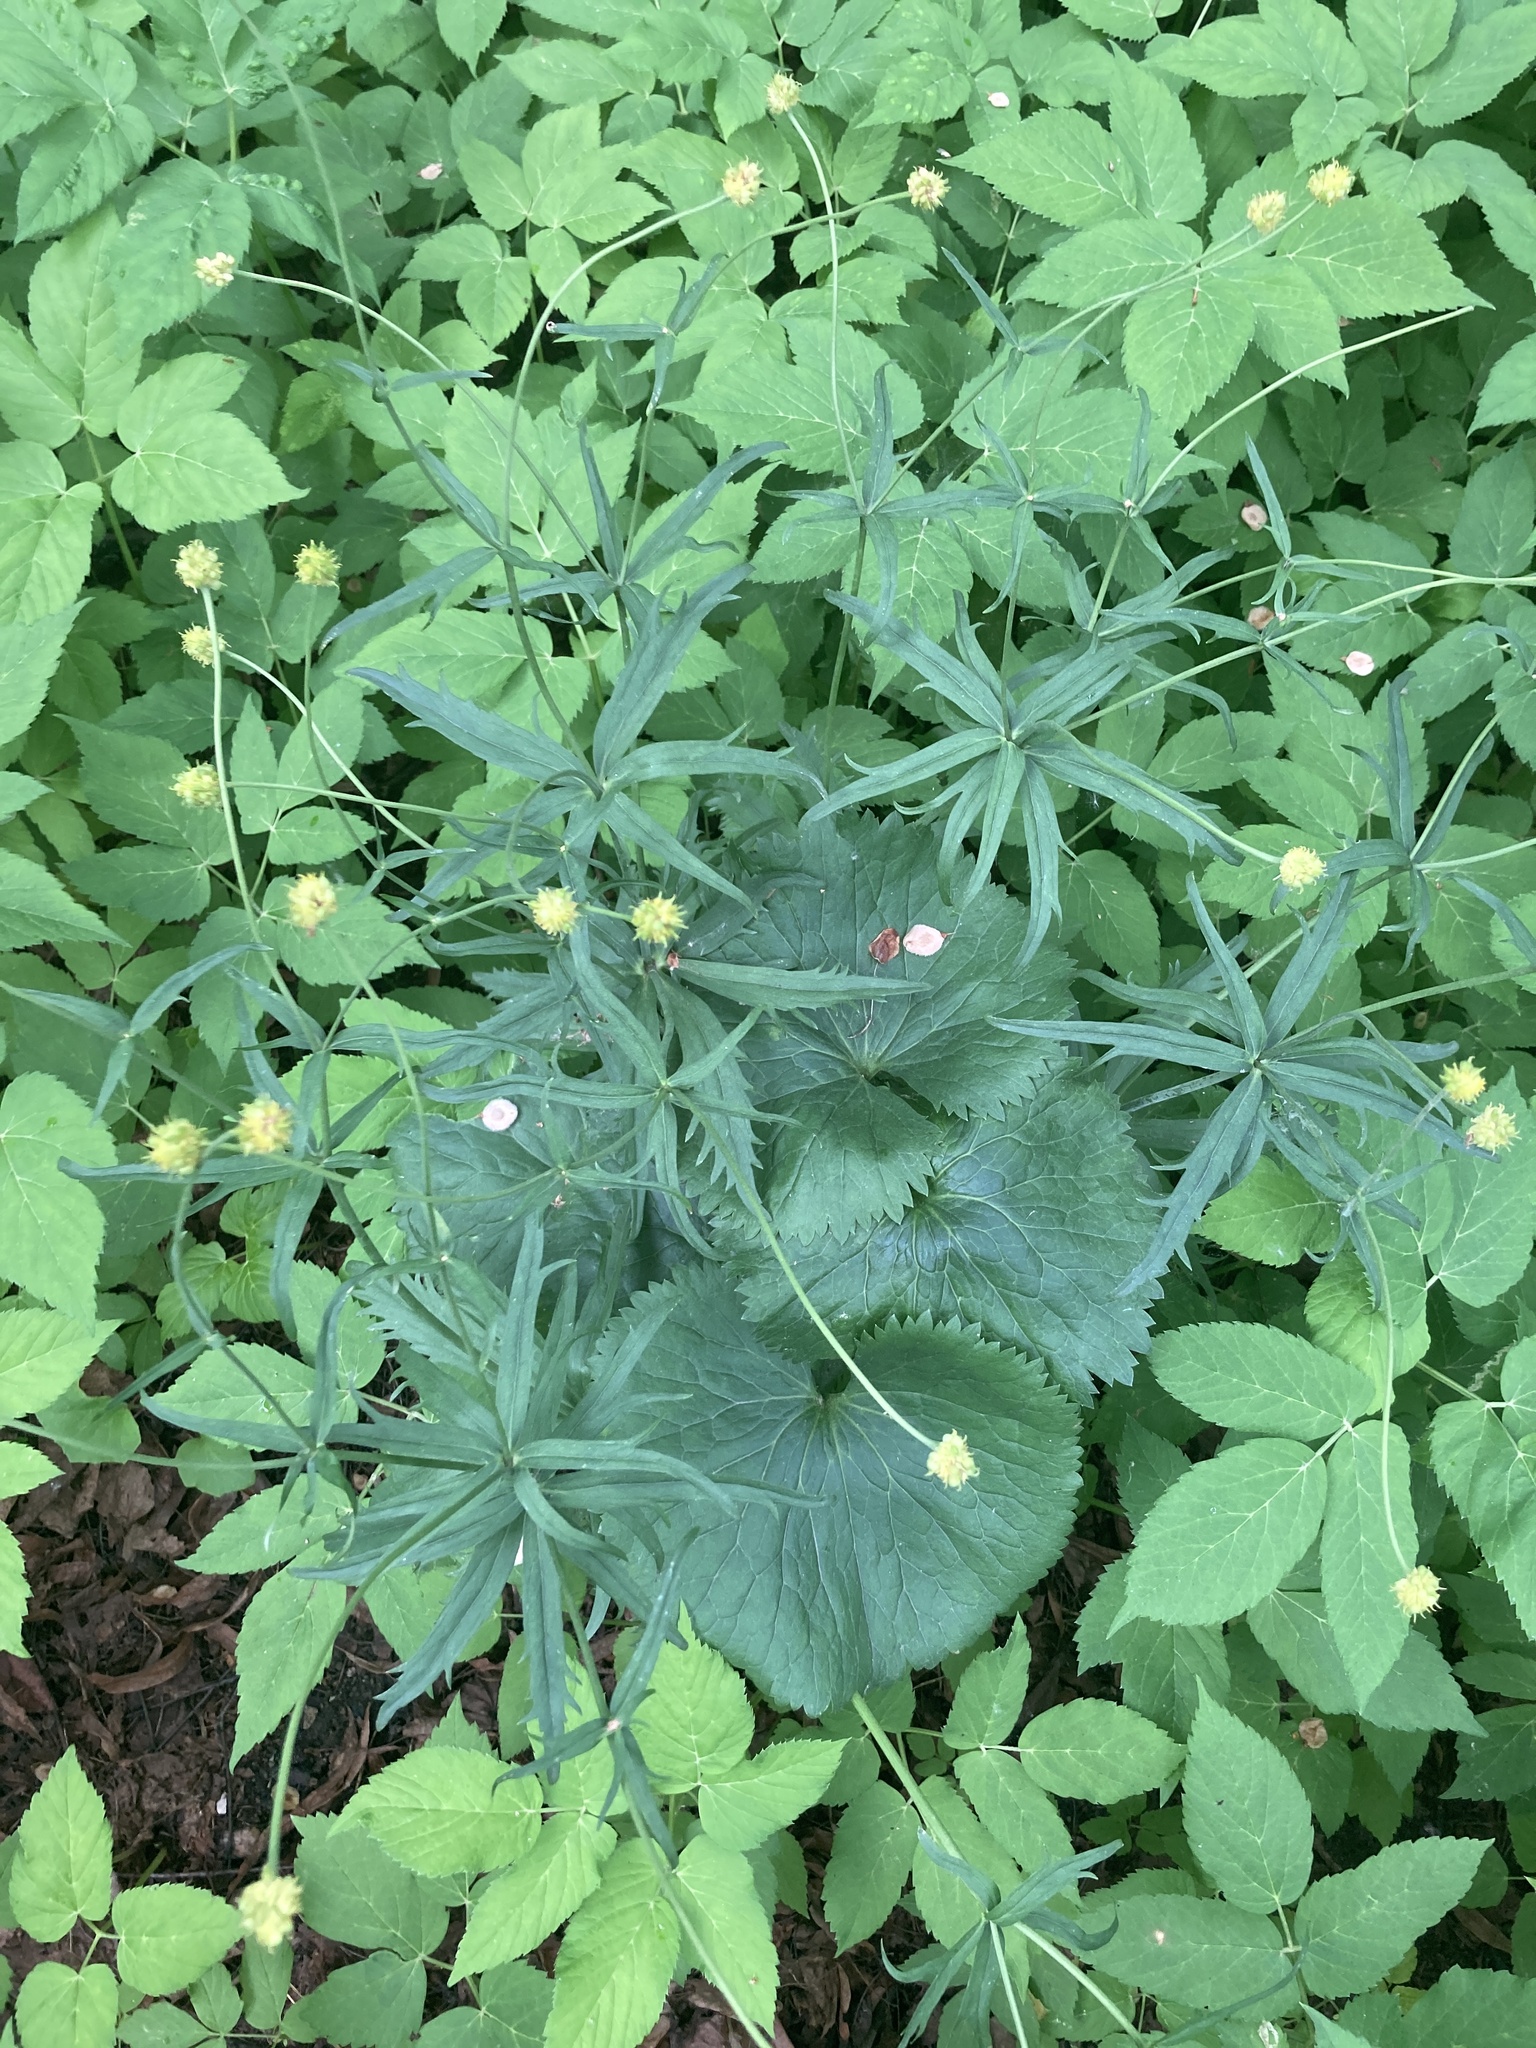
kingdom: Plantae
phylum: Tracheophyta
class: Magnoliopsida
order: Ranunculales
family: Ranunculaceae
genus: Ranunculus
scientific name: Ranunculus cassubicus
